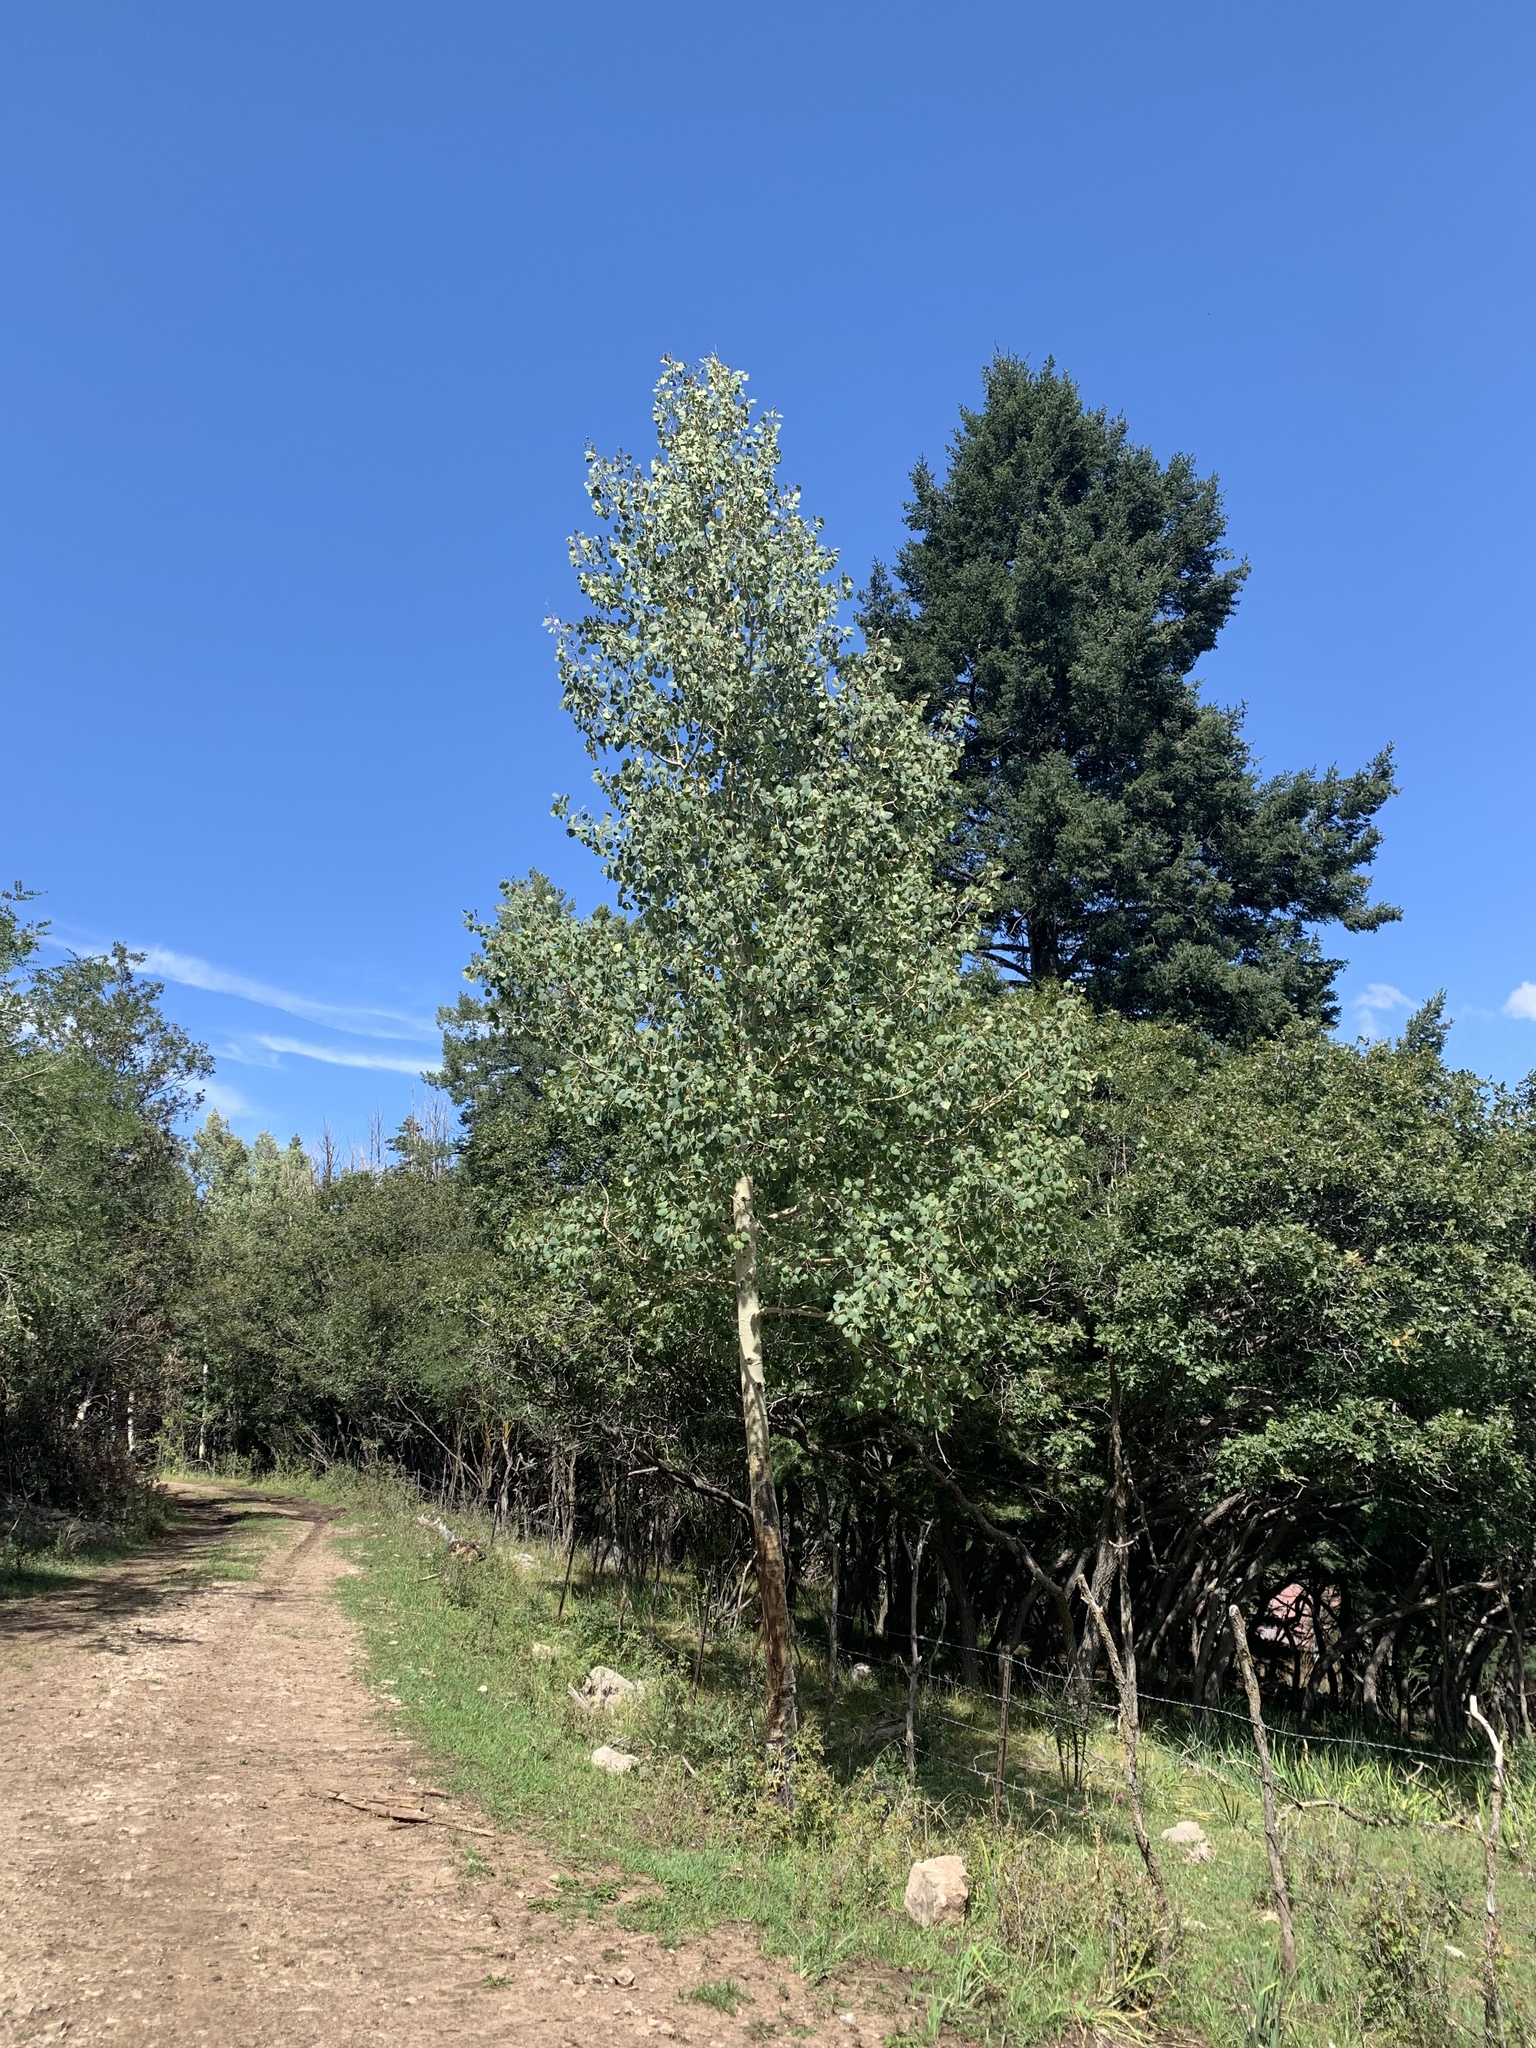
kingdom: Plantae
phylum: Tracheophyta
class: Magnoliopsida
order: Malpighiales
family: Salicaceae
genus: Populus
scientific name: Populus tremuloides
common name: Quaking aspen
